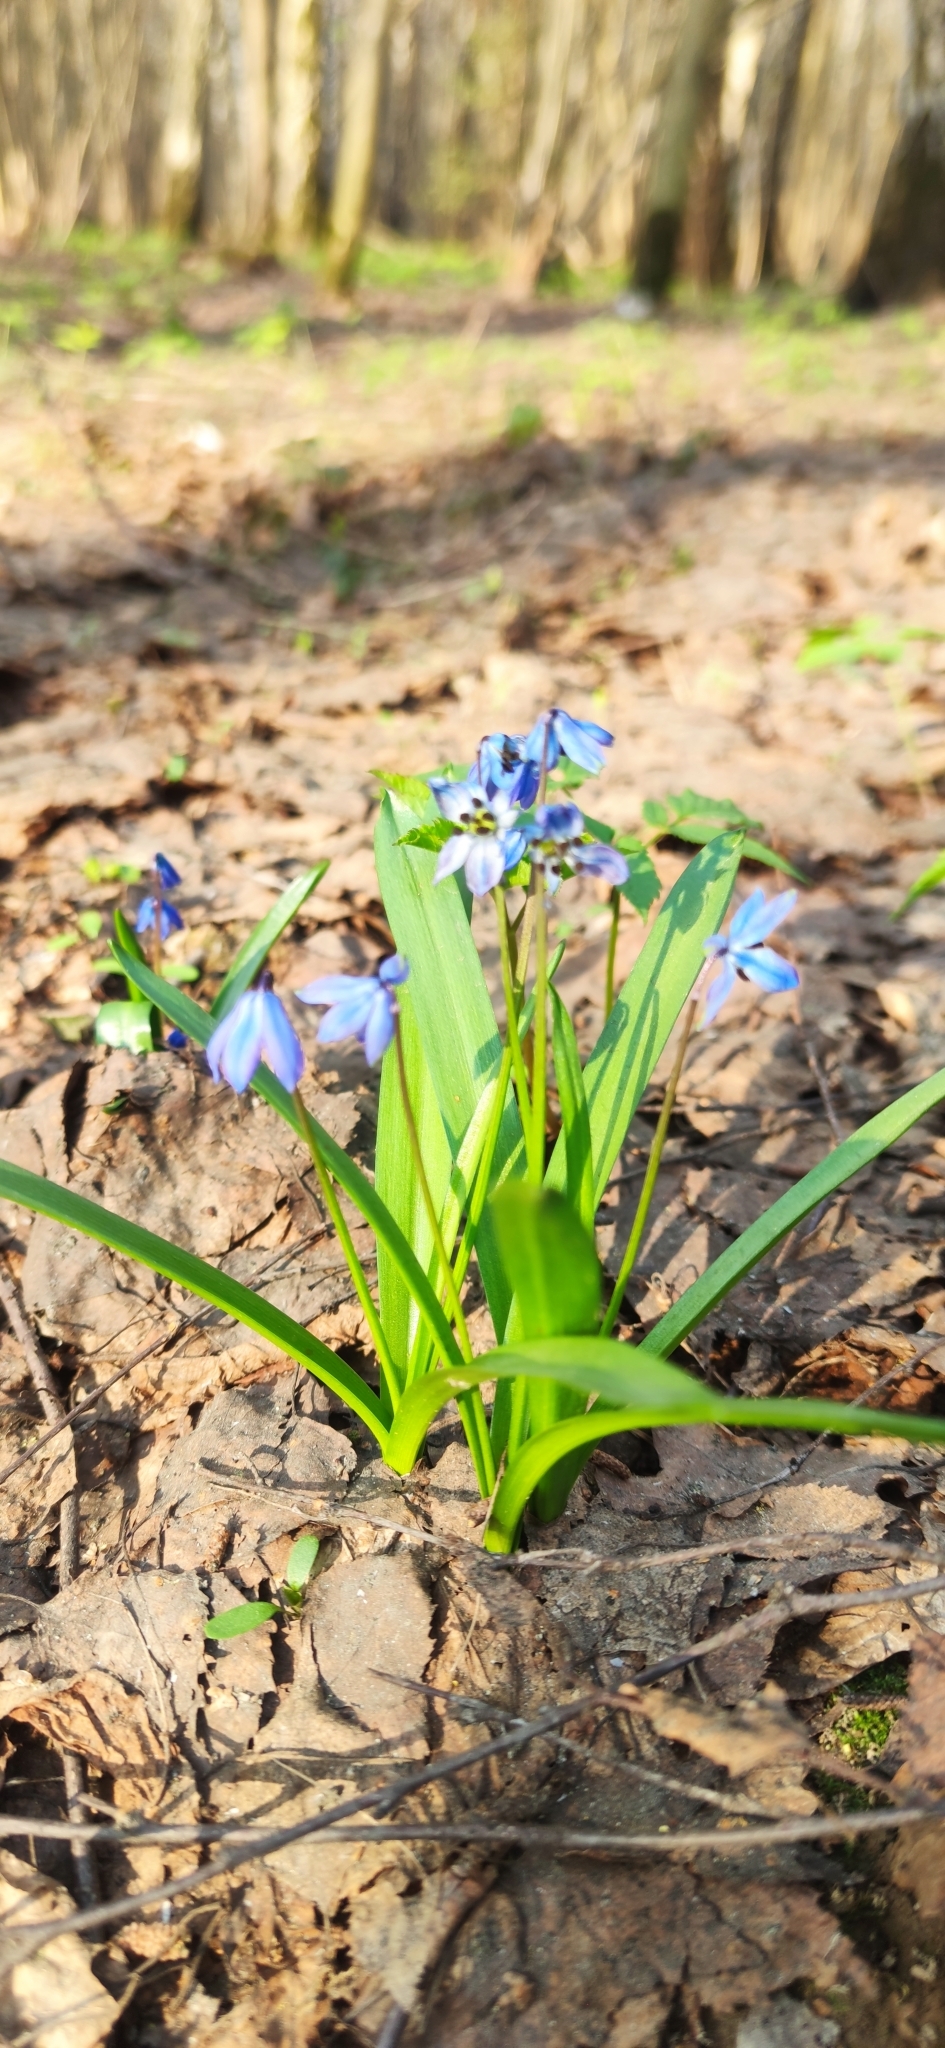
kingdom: Plantae
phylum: Tracheophyta
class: Liliopsida
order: Asparagales
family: Asparagaceae
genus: Scilla
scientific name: Scilla siberica
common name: Siberian squill
